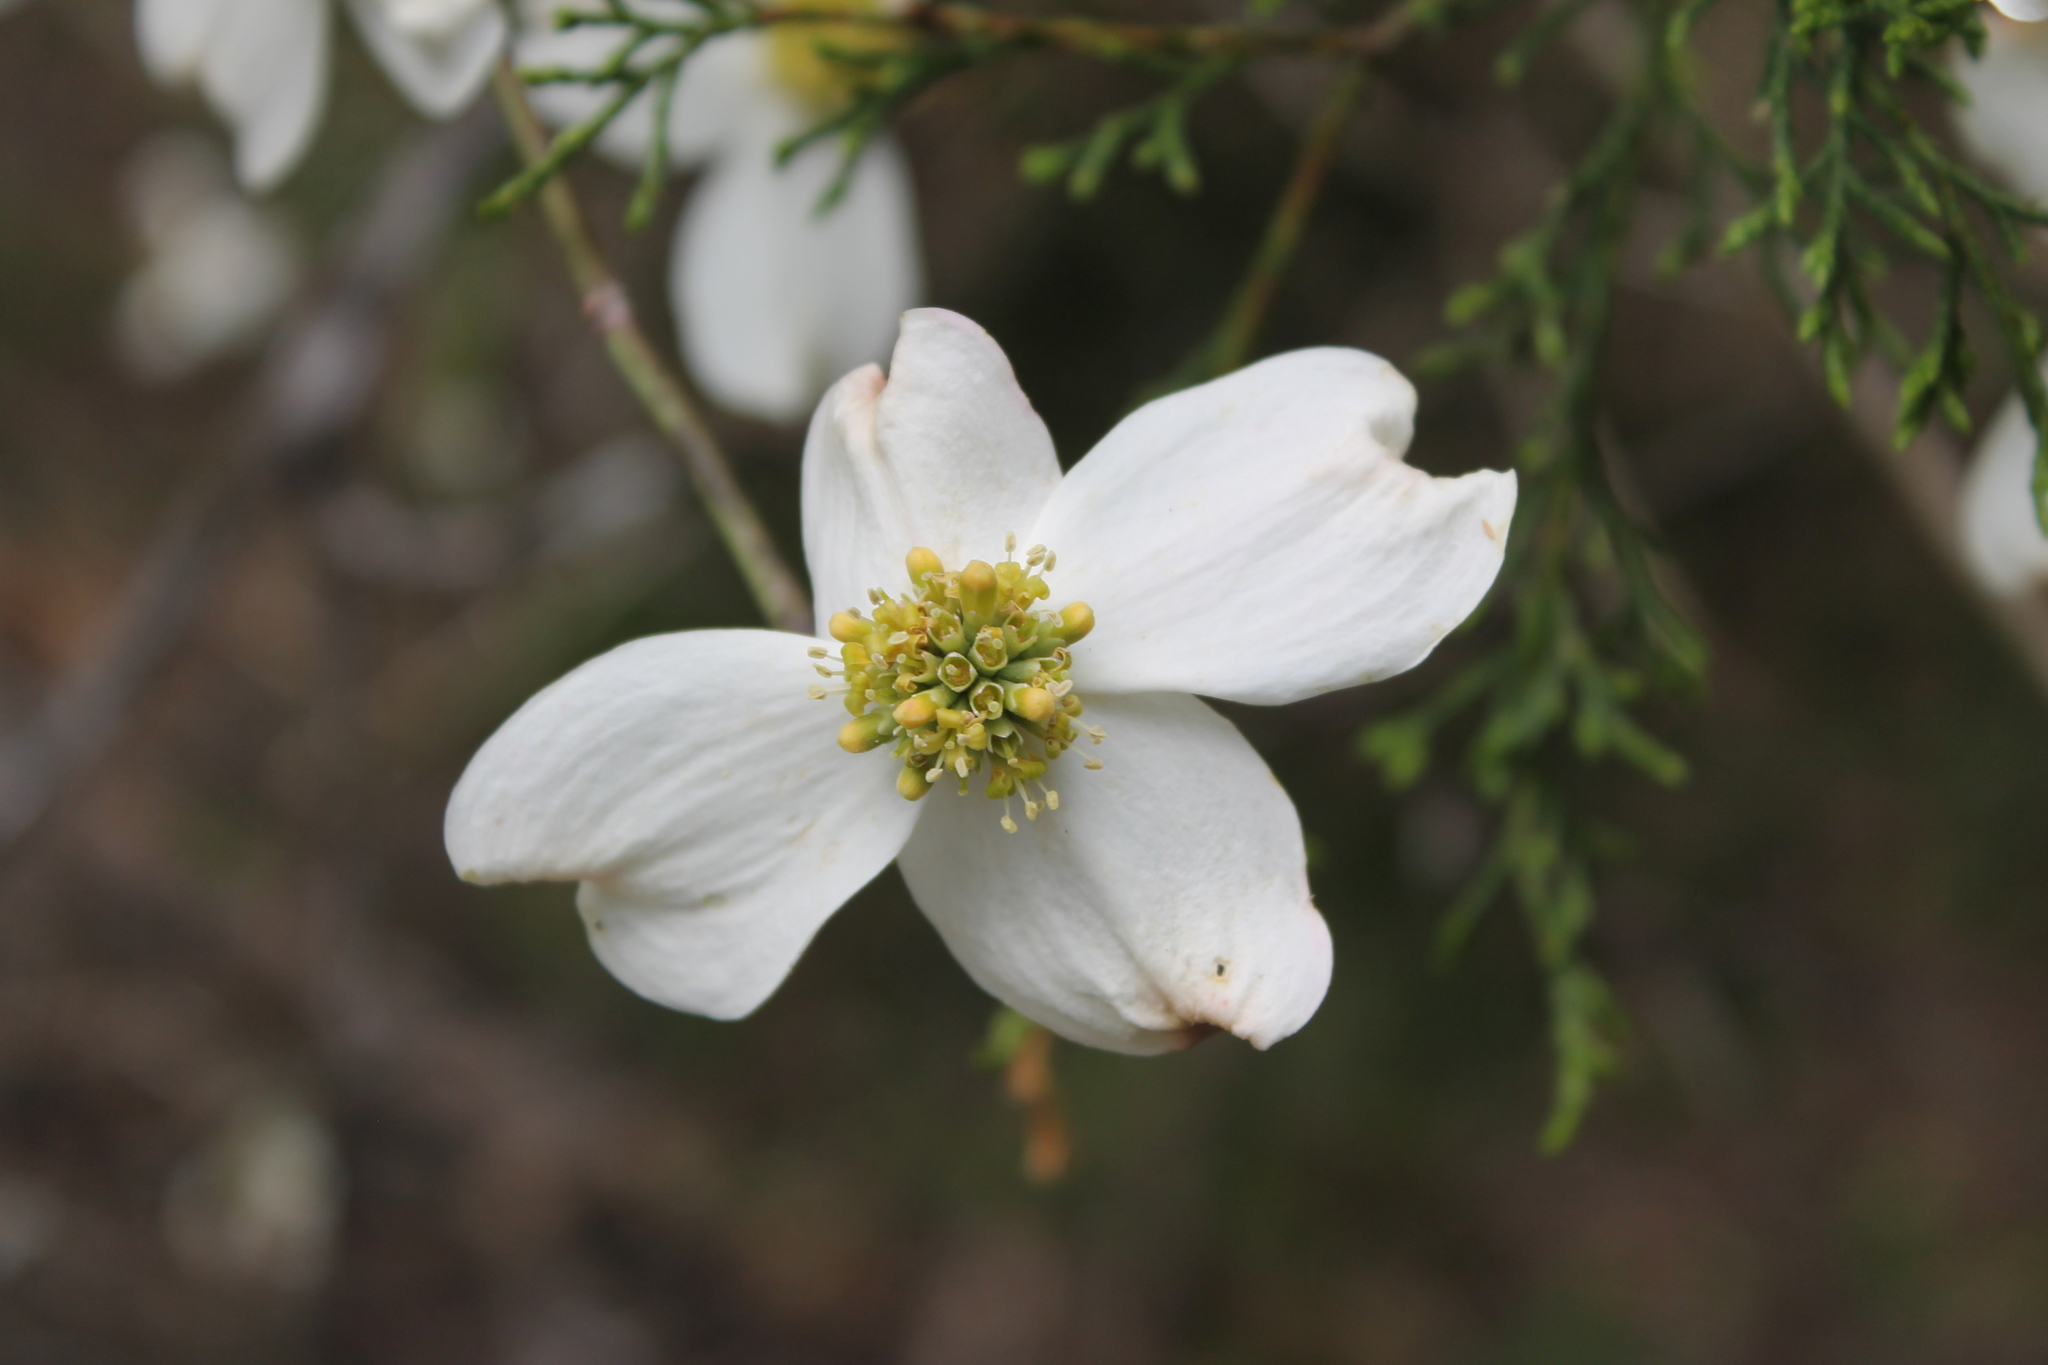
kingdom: Plantae
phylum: Tracheophyta
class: Magnoliopsida
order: Cornales
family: Cornaceae
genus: Cornus
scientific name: Cornus florida
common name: Flowering dogwood
